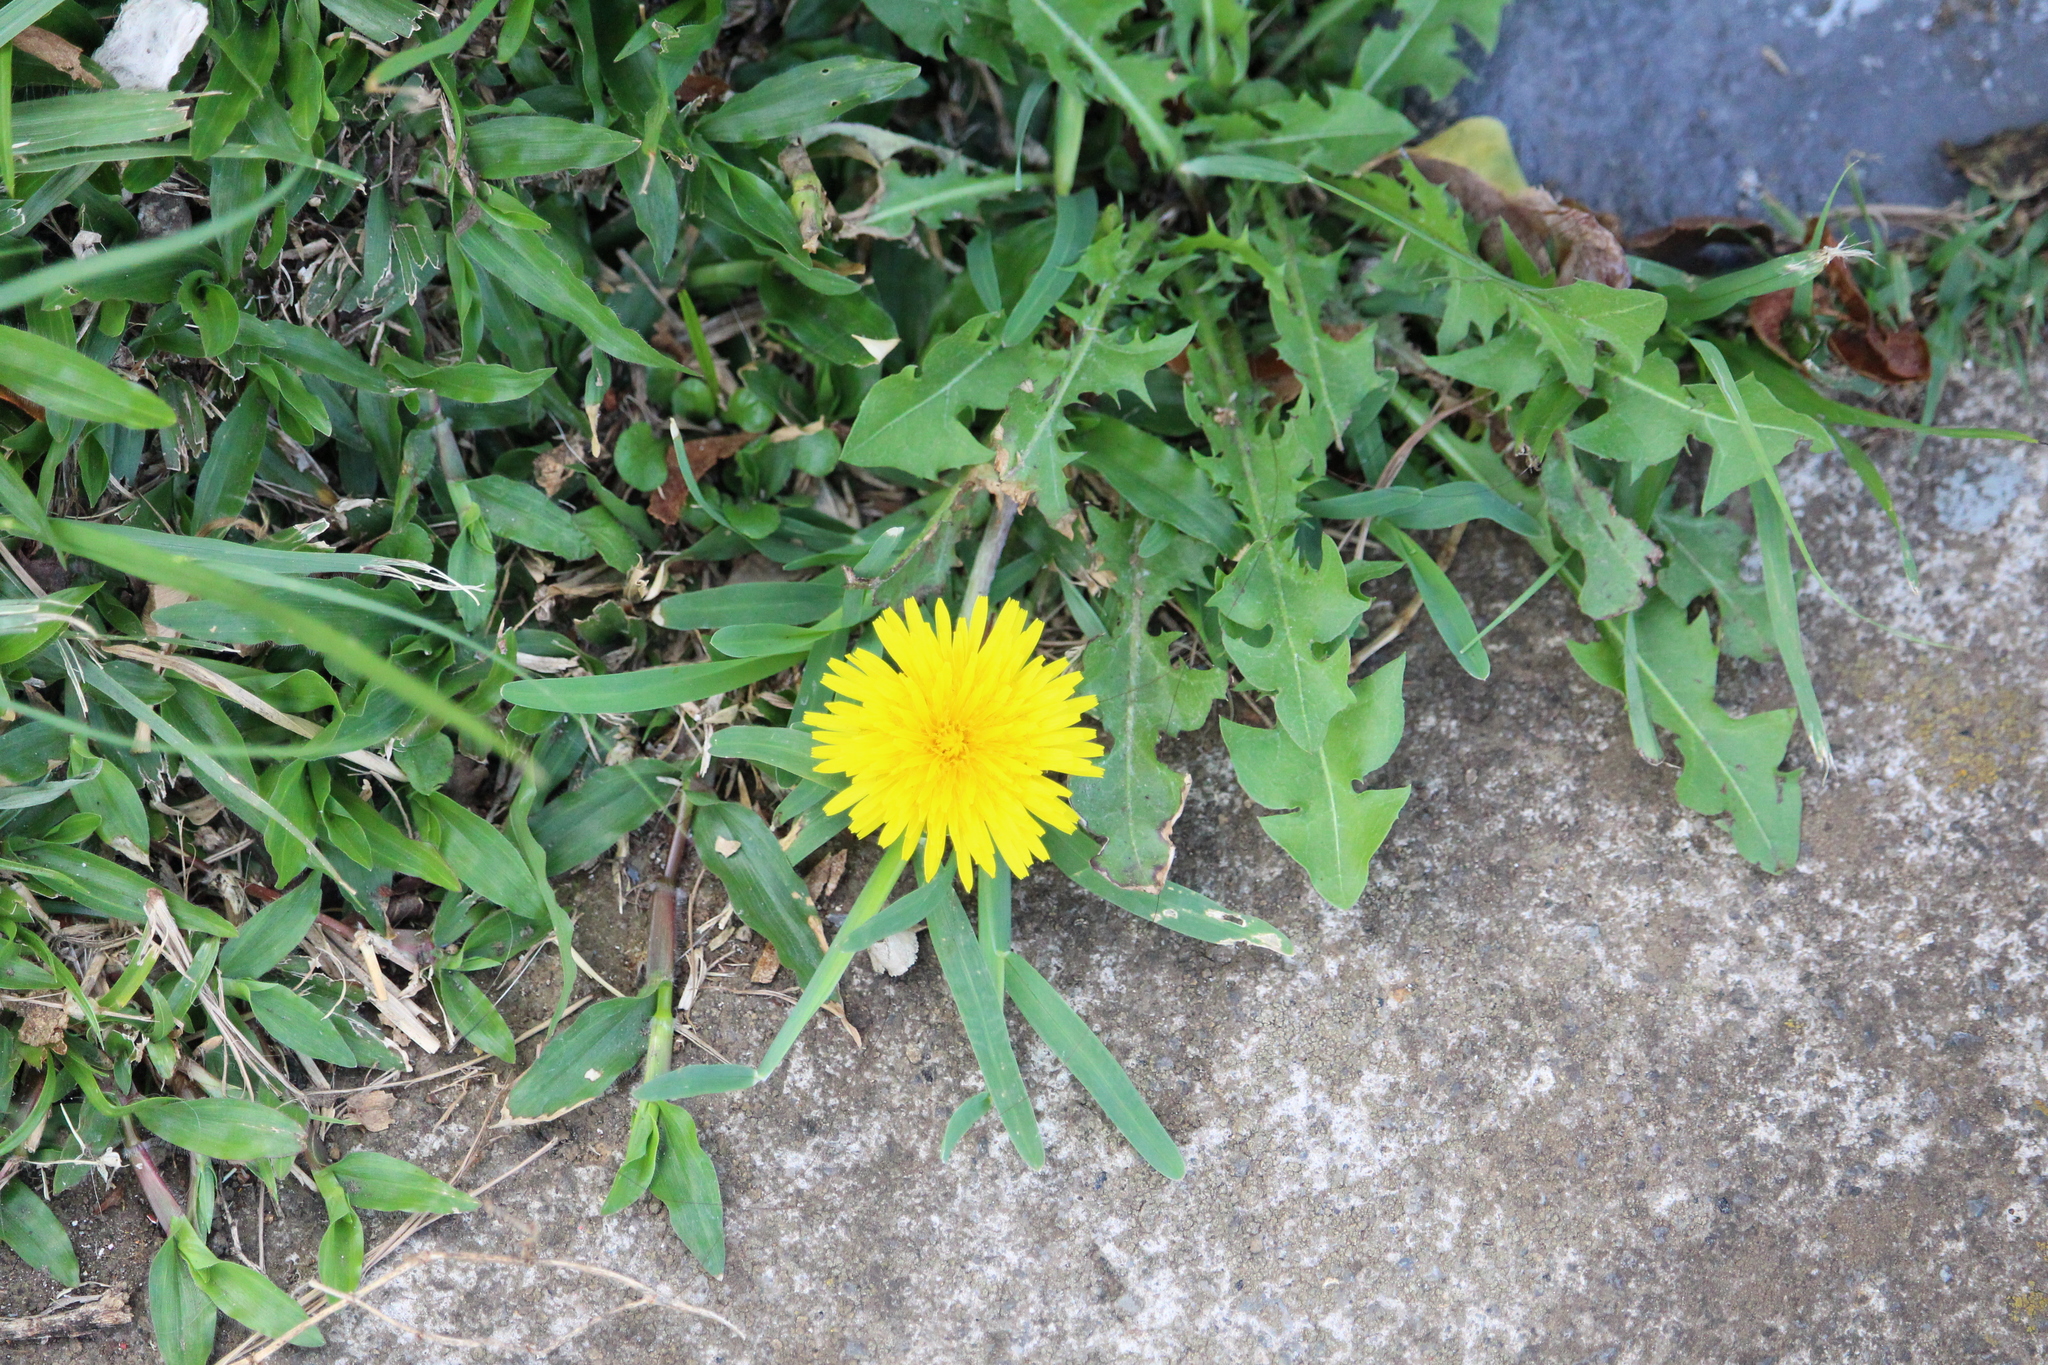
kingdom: Plantae
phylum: Tracheophyta
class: Magnoliopsida
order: Asterales
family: Asteraceae
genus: Taraxacum
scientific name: Taraxacum officinale
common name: Common dandelion
